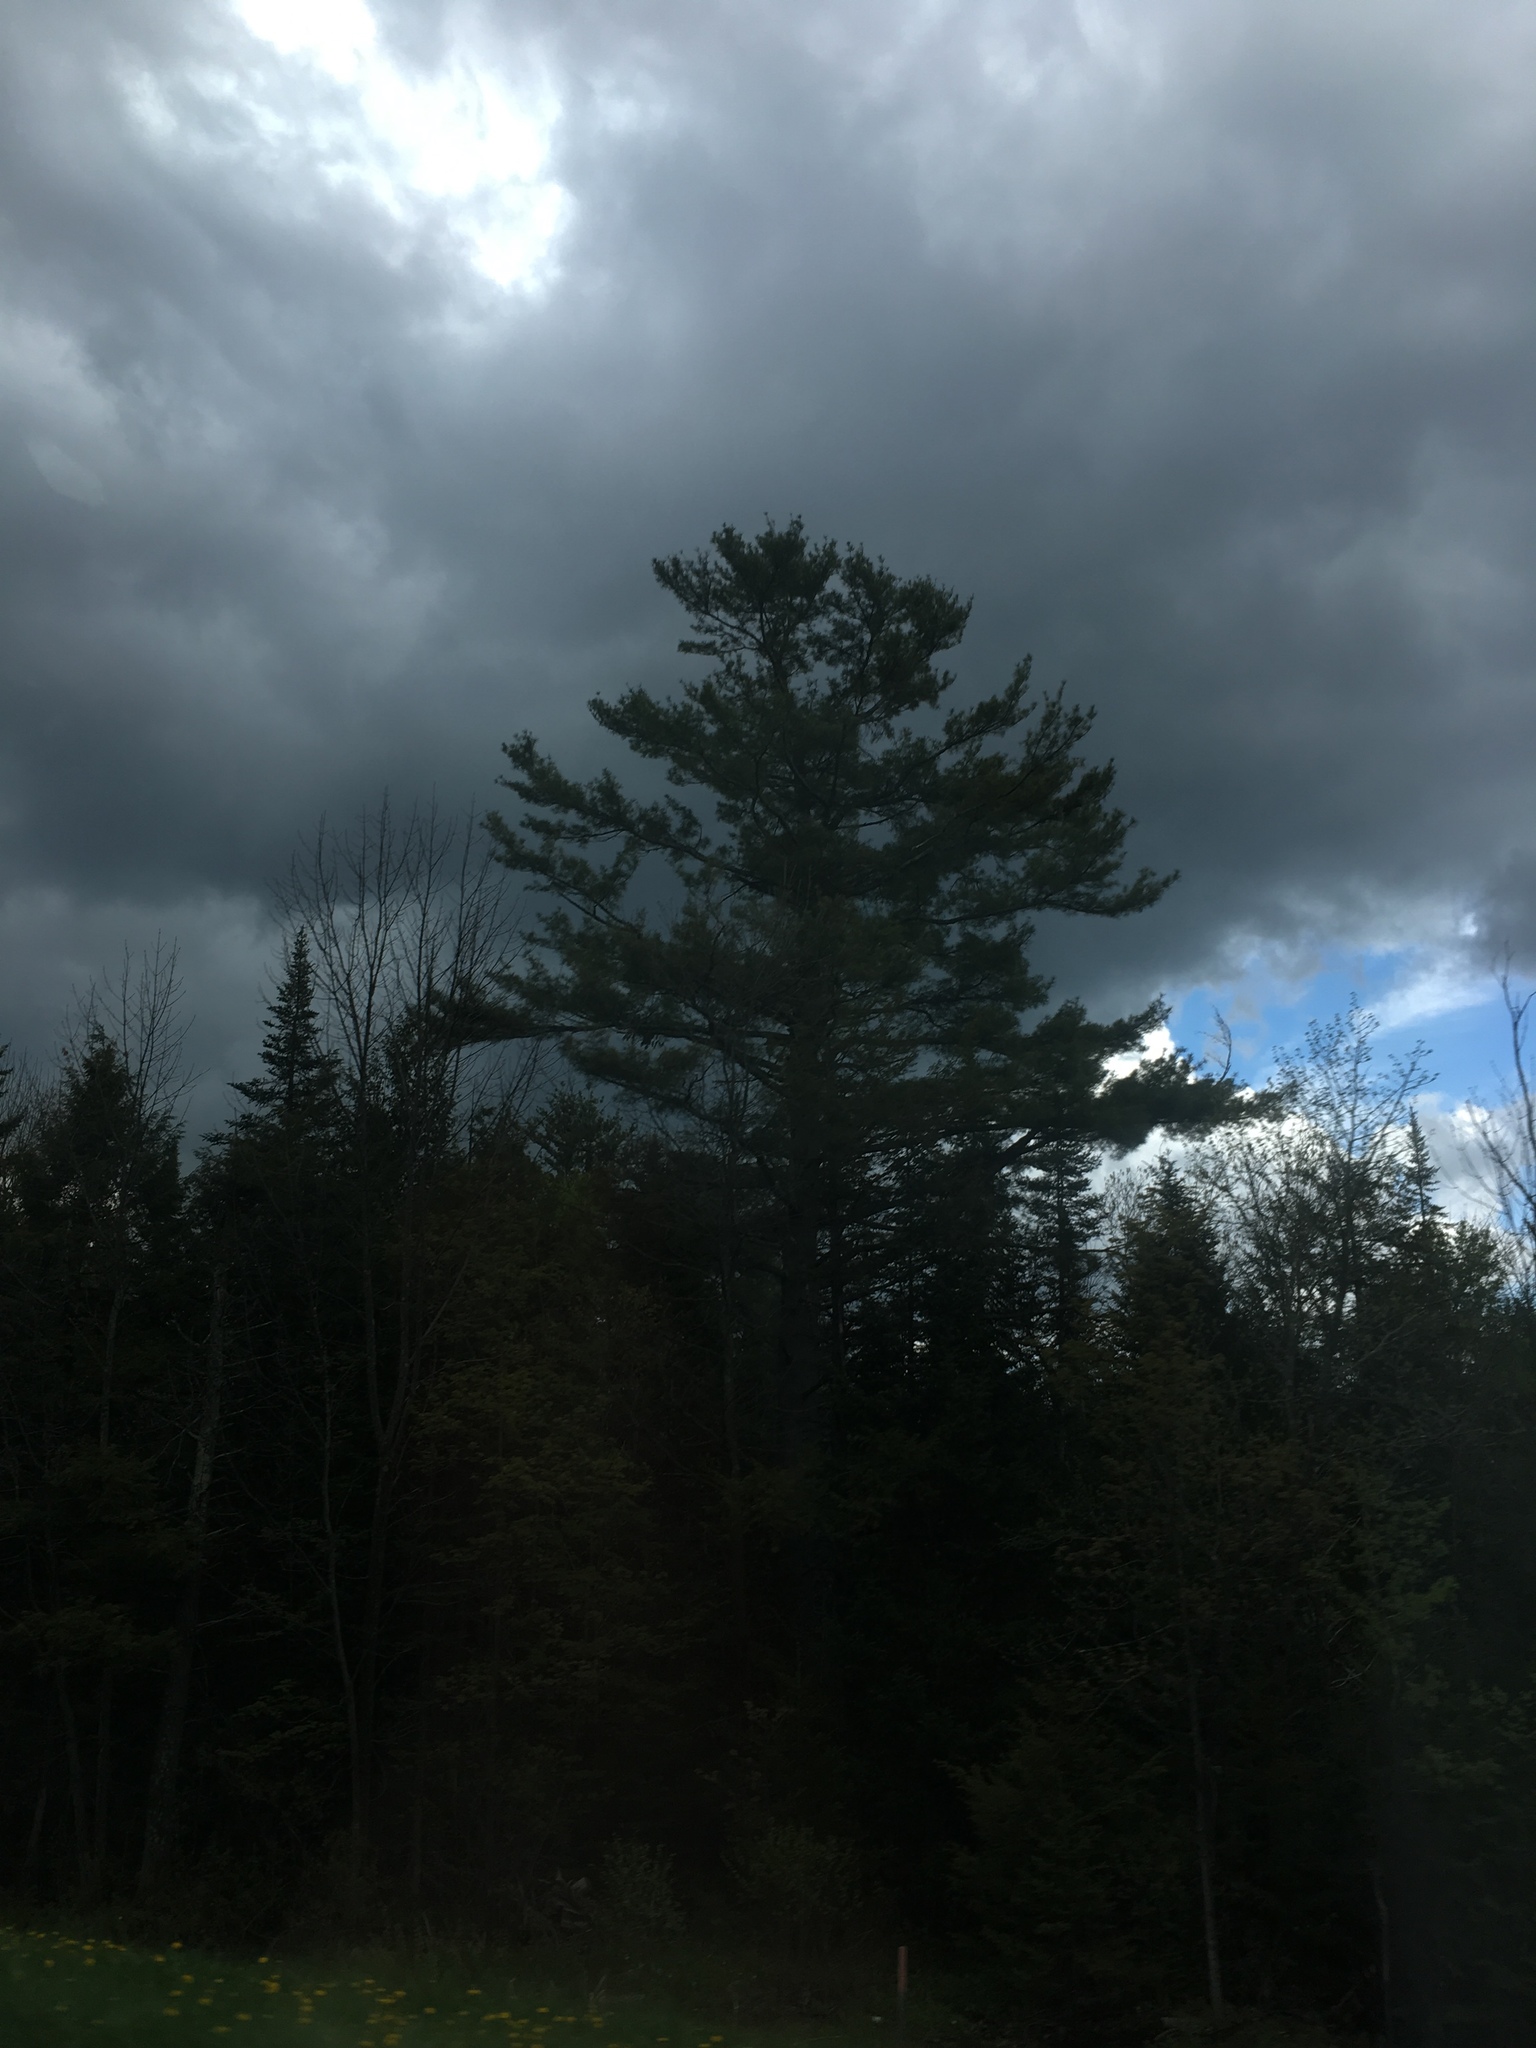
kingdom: Plantae
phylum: Tracheophyta
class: Pinopsida
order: Pinales
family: Pinaceae
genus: Pinus
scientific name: Pinus strobus
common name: Weymouth pine
